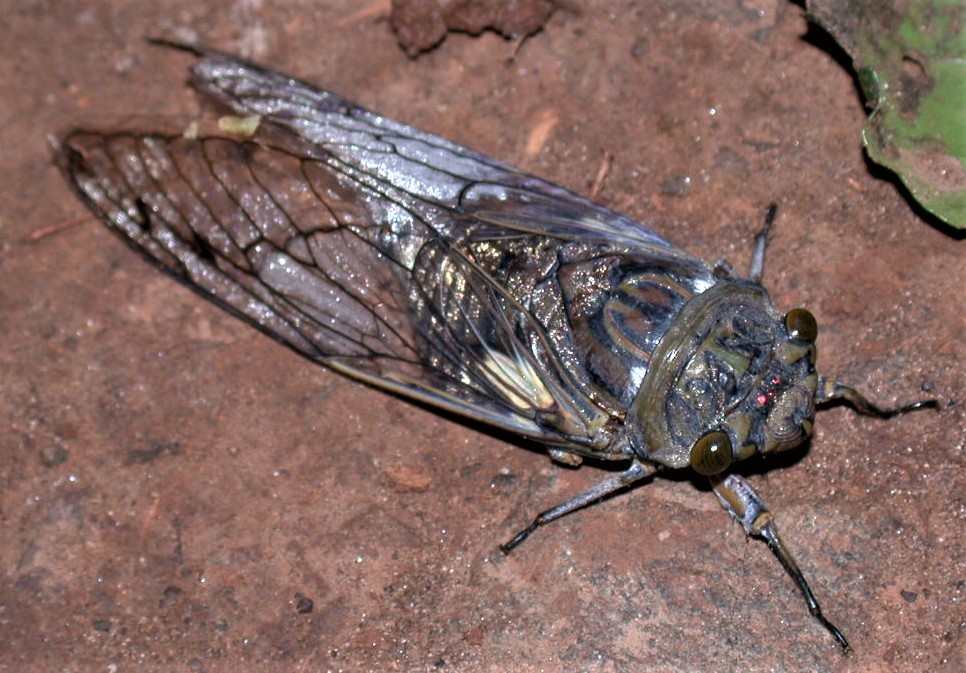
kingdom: Animalia
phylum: Arthropoda
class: Insecta
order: Hemiptera
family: Cicadidae
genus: Quesada
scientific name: Quesada gigas
